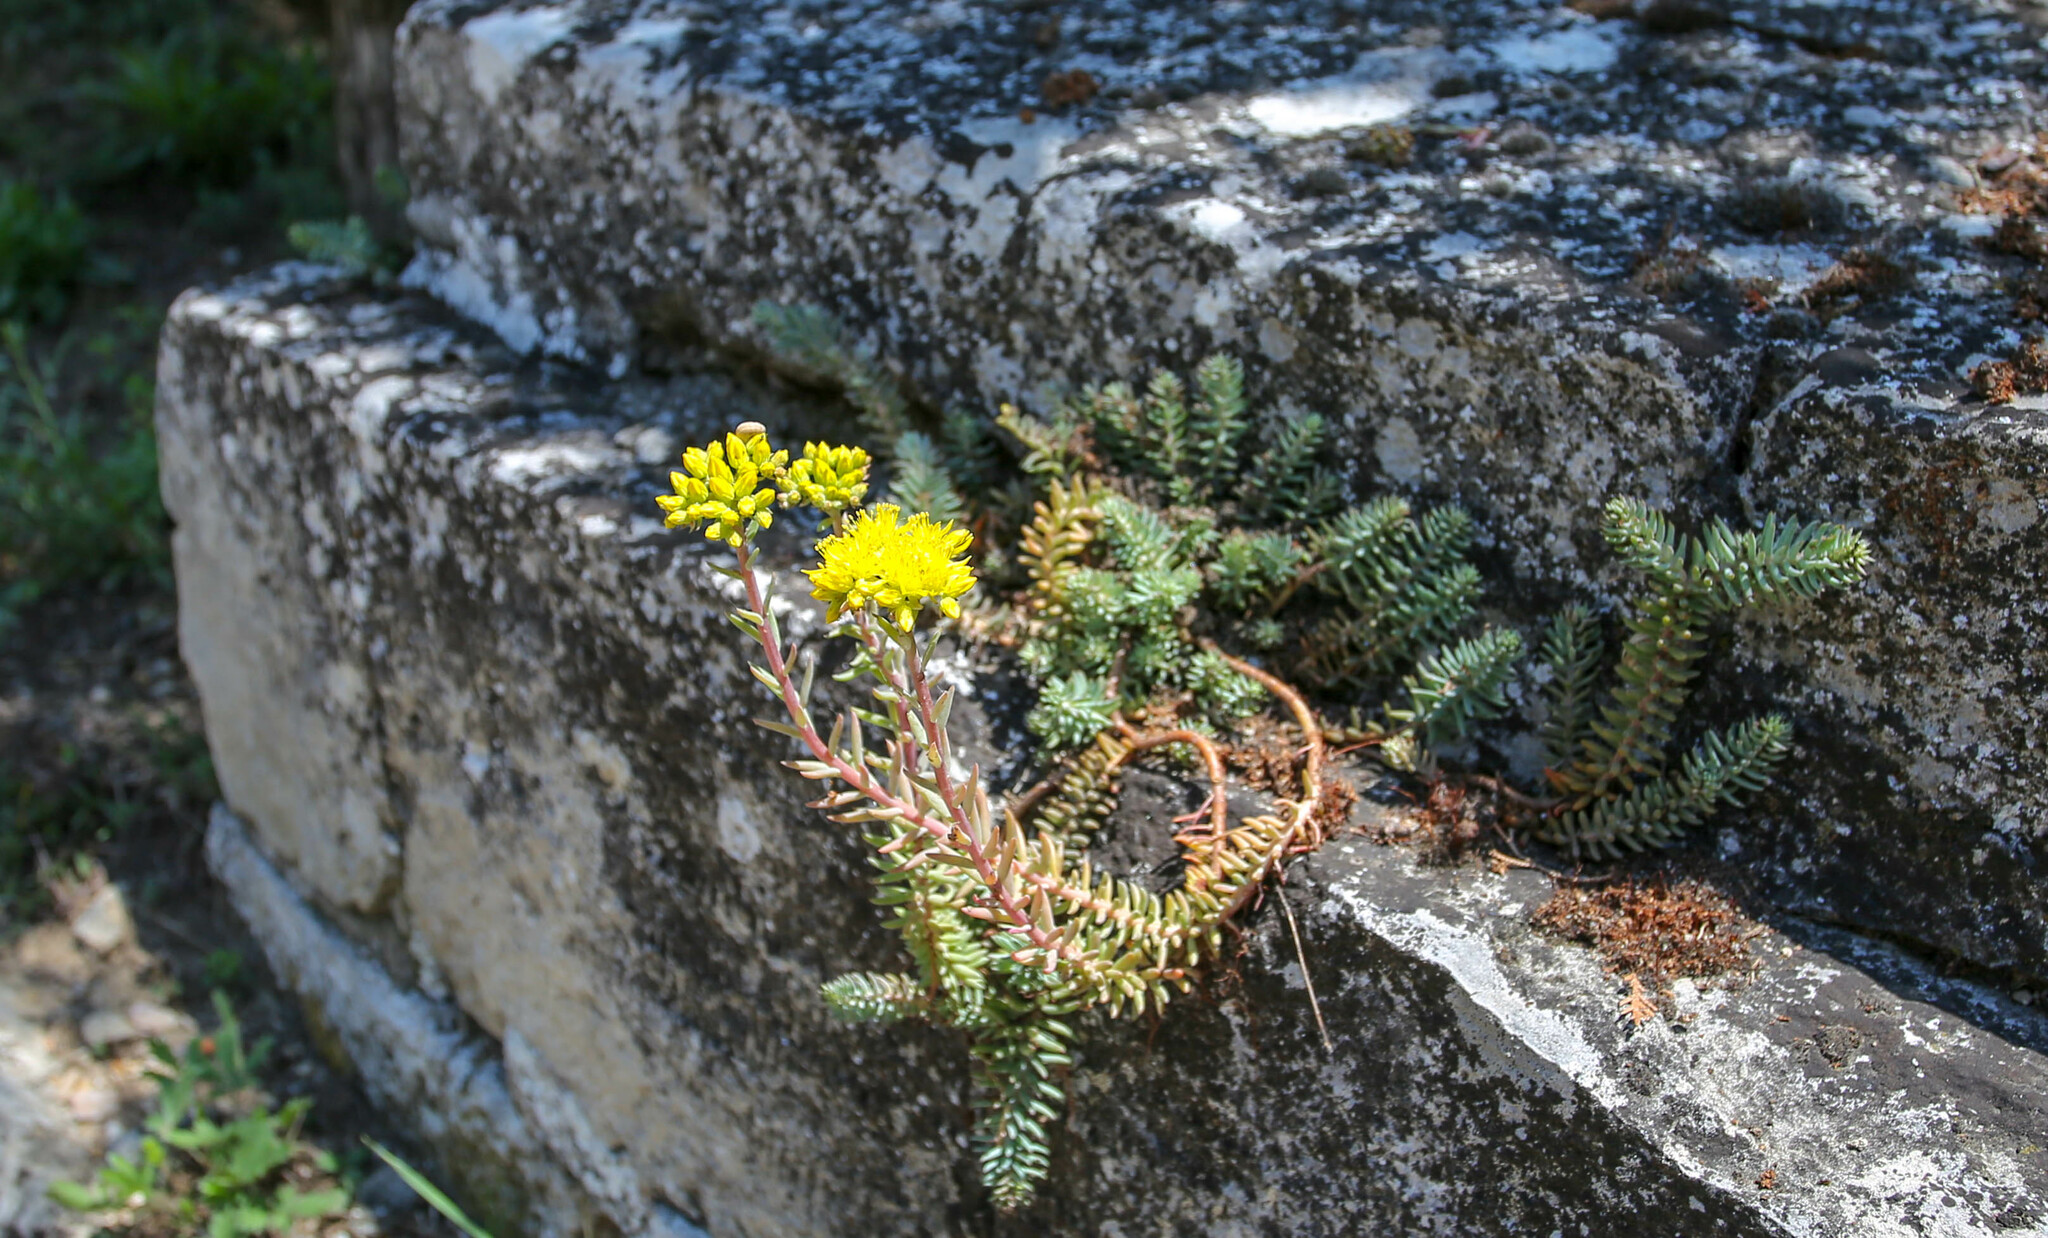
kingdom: Plantae
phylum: Tracheophyta
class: Magnoliopsida
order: Saxifragales
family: Crassulaceae
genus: Petrosedum
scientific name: Petrosedum rupestre
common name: Jenny's stonecrop
